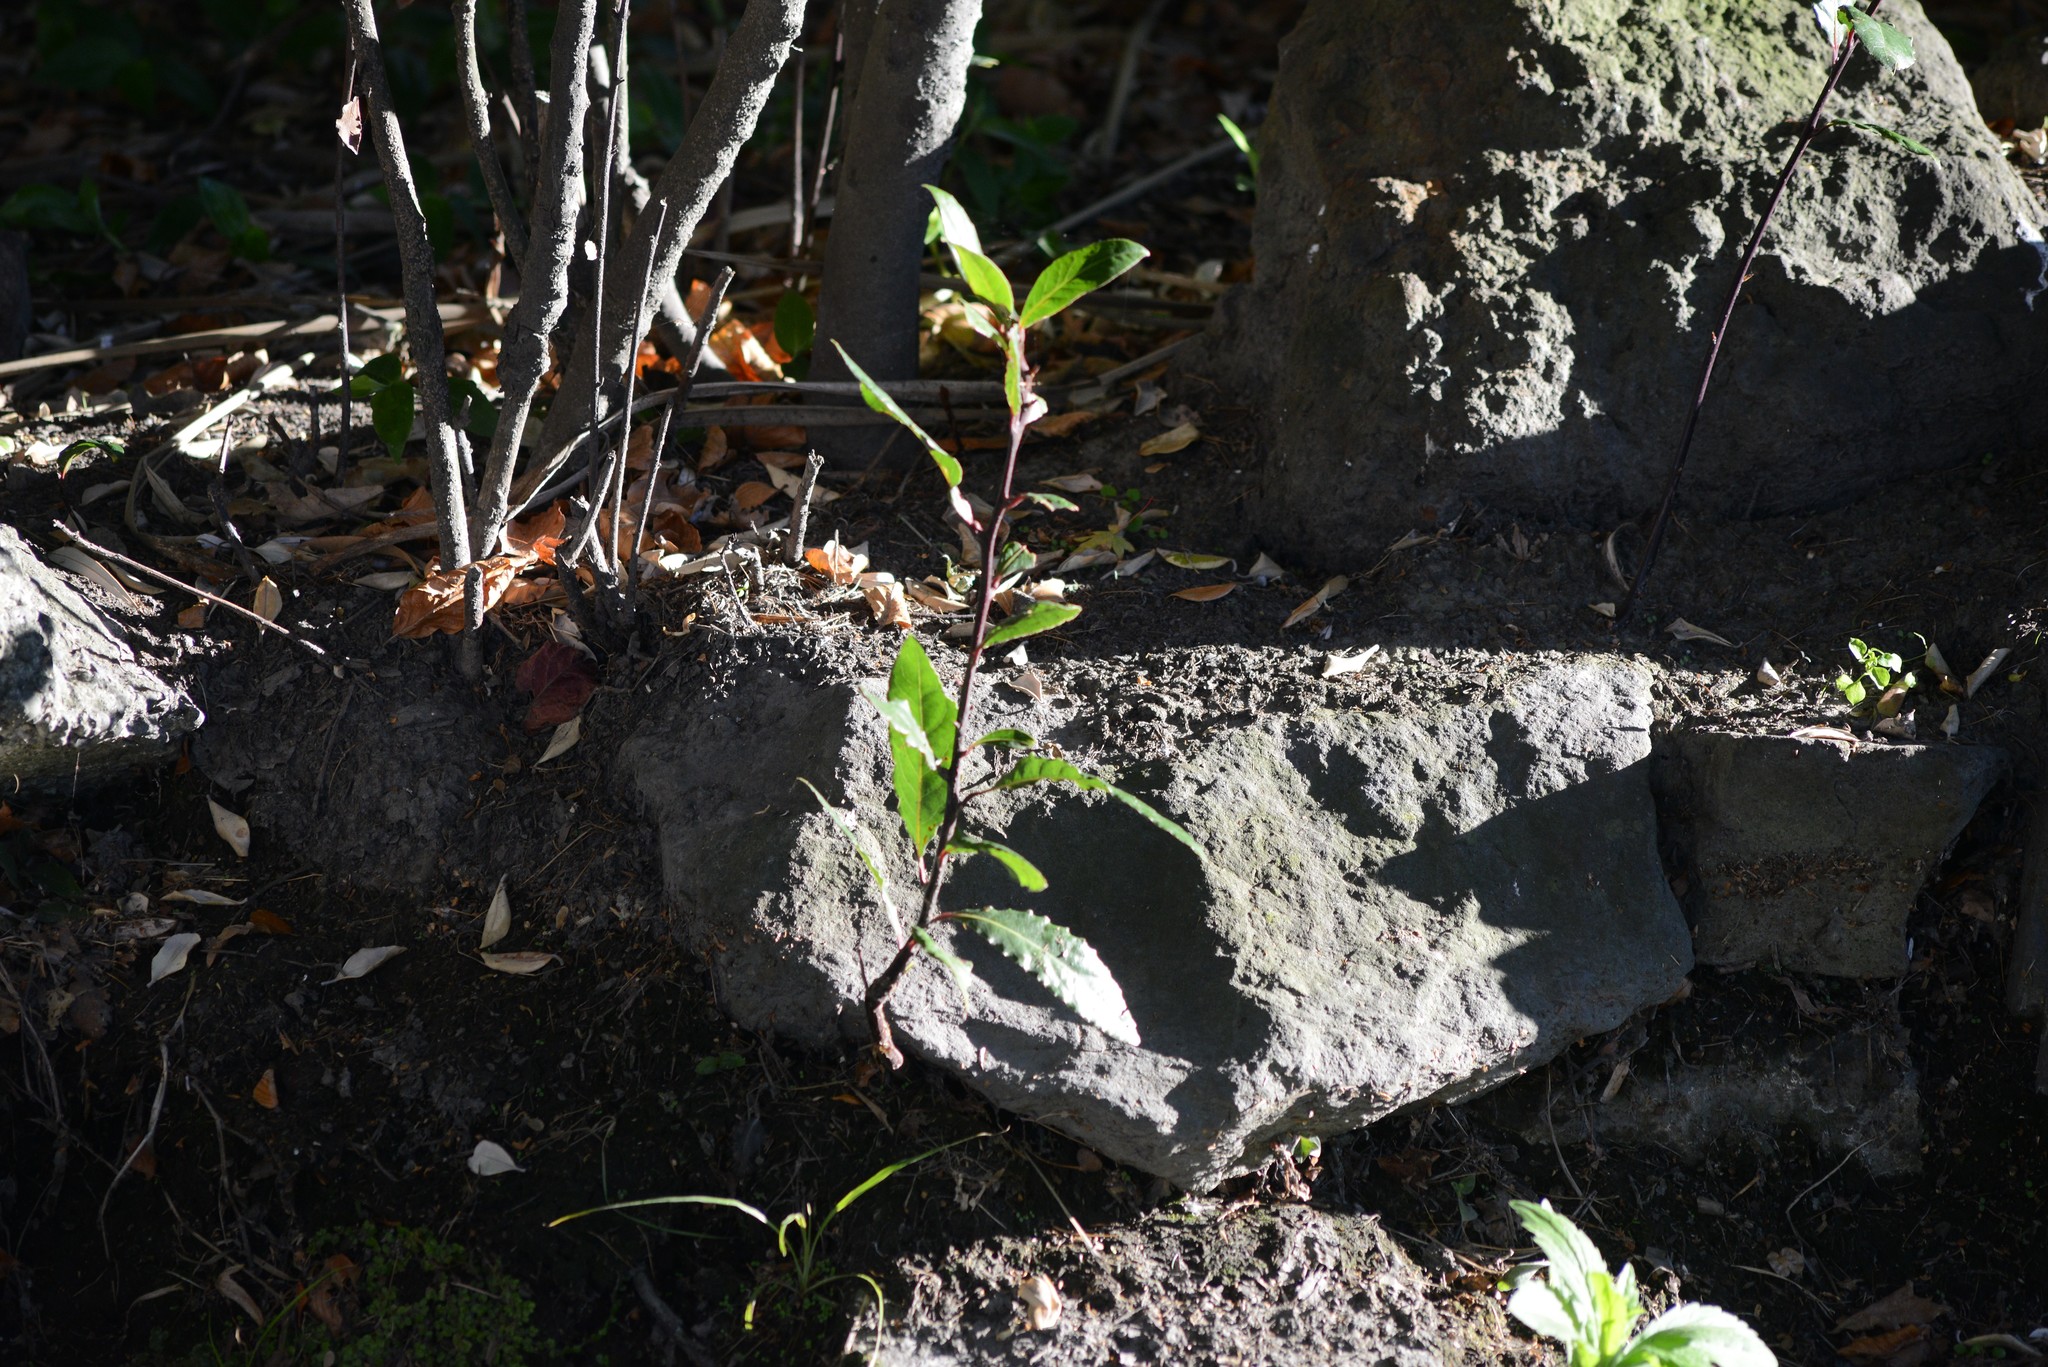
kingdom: Plantae
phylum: Tracheophyta
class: Magnoliopsida
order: Laurales
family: Lauraceae
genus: Laurus
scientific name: Laurus nobilis
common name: Bay
